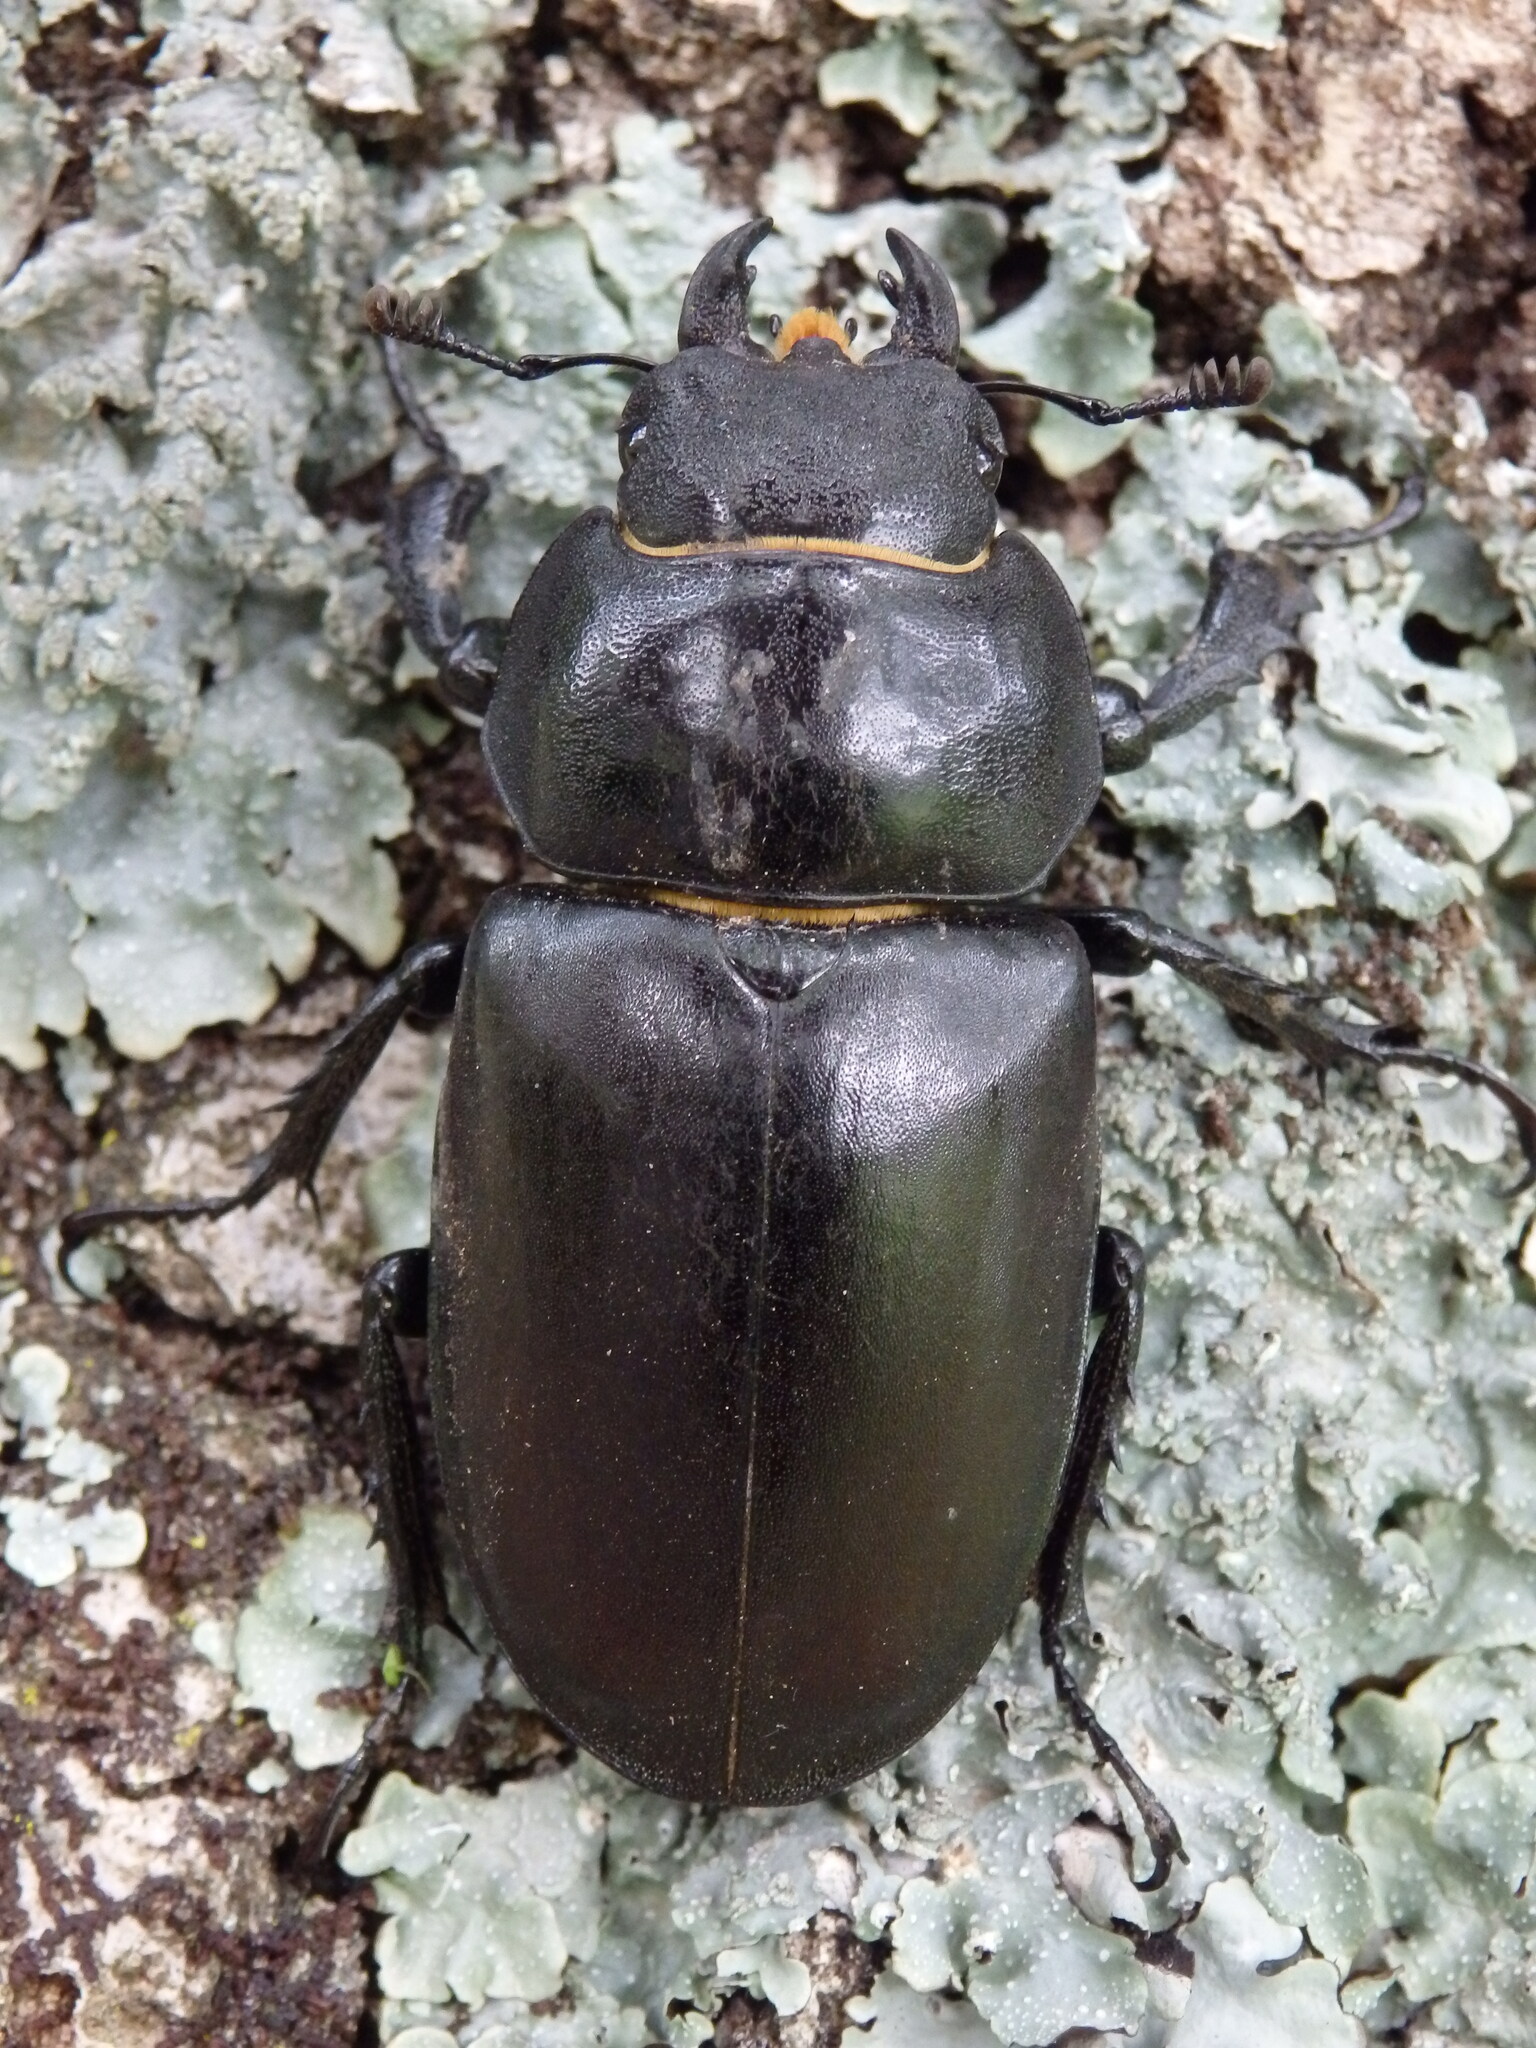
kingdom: Animalia
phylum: Arthropoda
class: Insecta
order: Coleoptera
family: Lucanidae
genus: Lucanus
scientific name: Lucanus cervus
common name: Stag beetle
